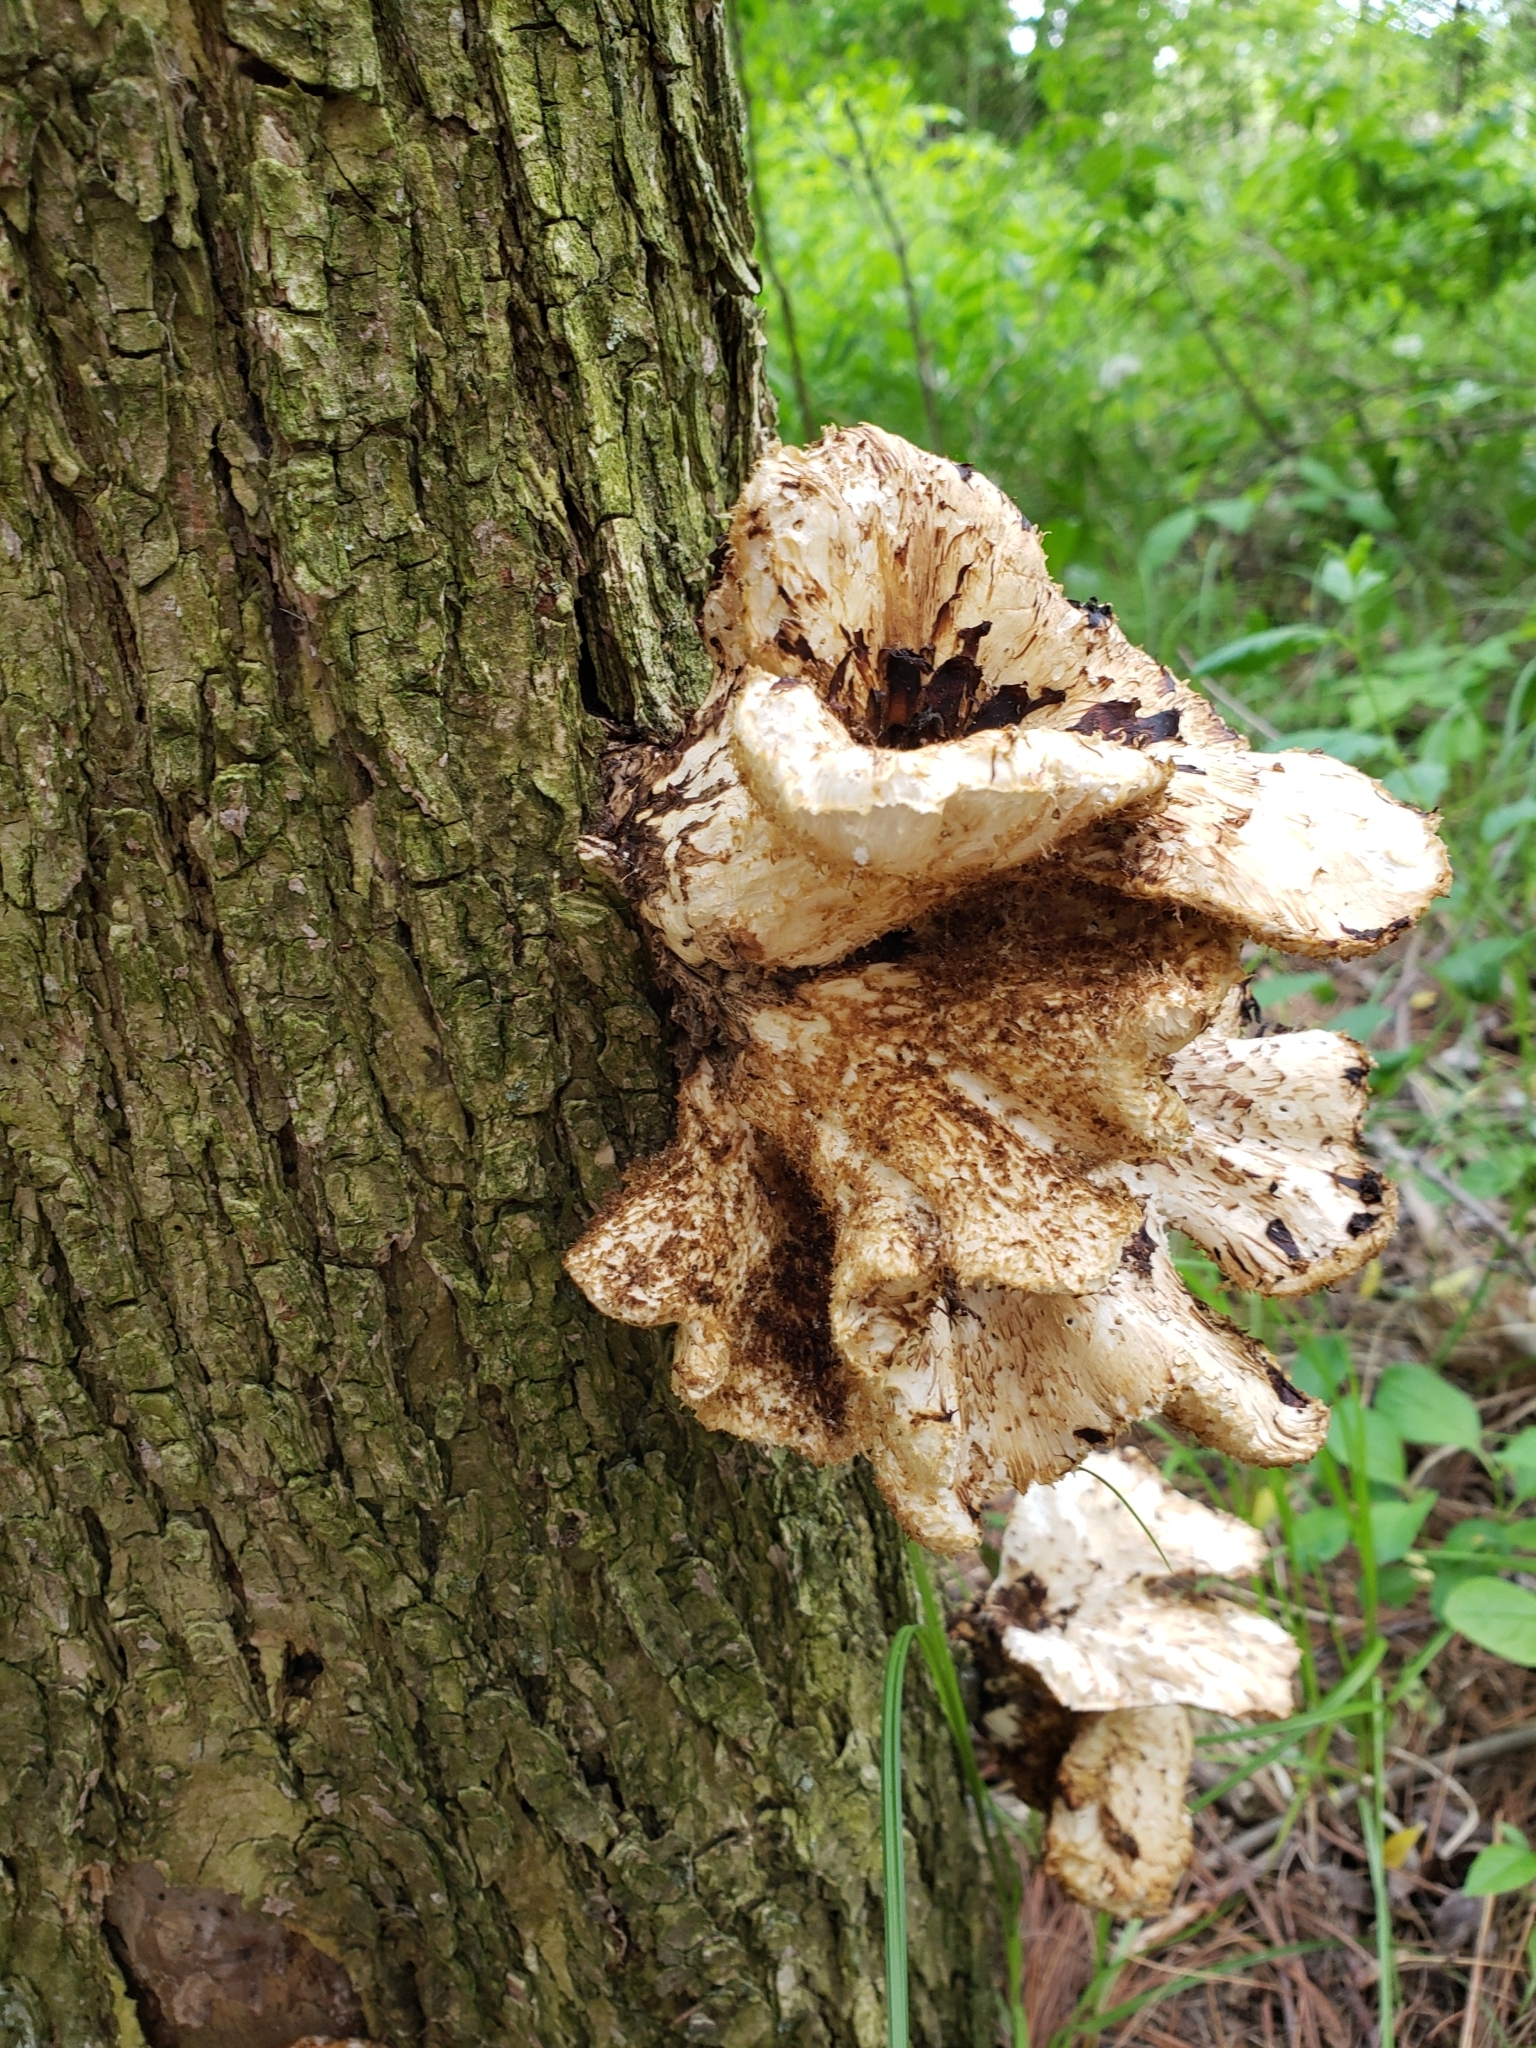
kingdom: Fungi
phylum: Basidiomycota
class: Agaricomycetes
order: Polyporales
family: Polyporaceae
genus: Cerioporus
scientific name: Cerioporus squamosus
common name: Dryad's saddle
